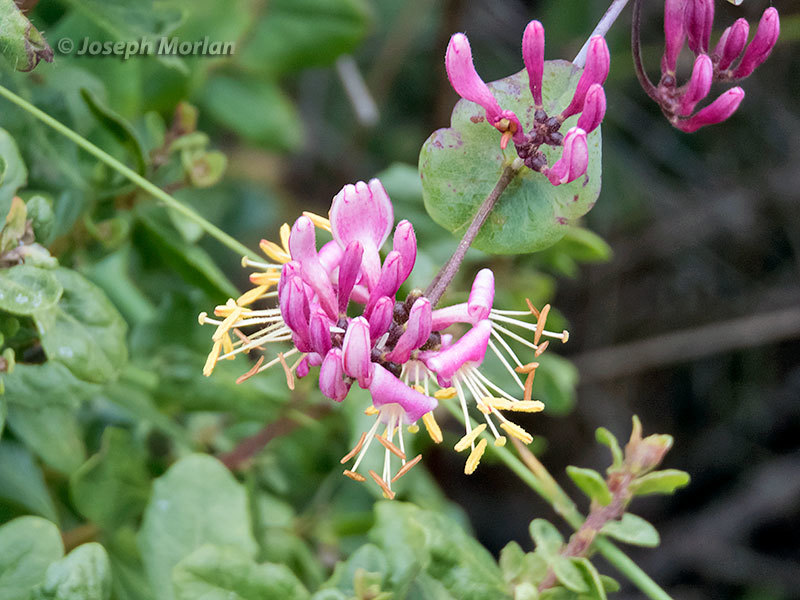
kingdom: Plantae
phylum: Tracheophyta
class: Magnoliopsida
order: Dipsacales
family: Caprifoliaceae
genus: Lonicera
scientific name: Lonicera hispidula
